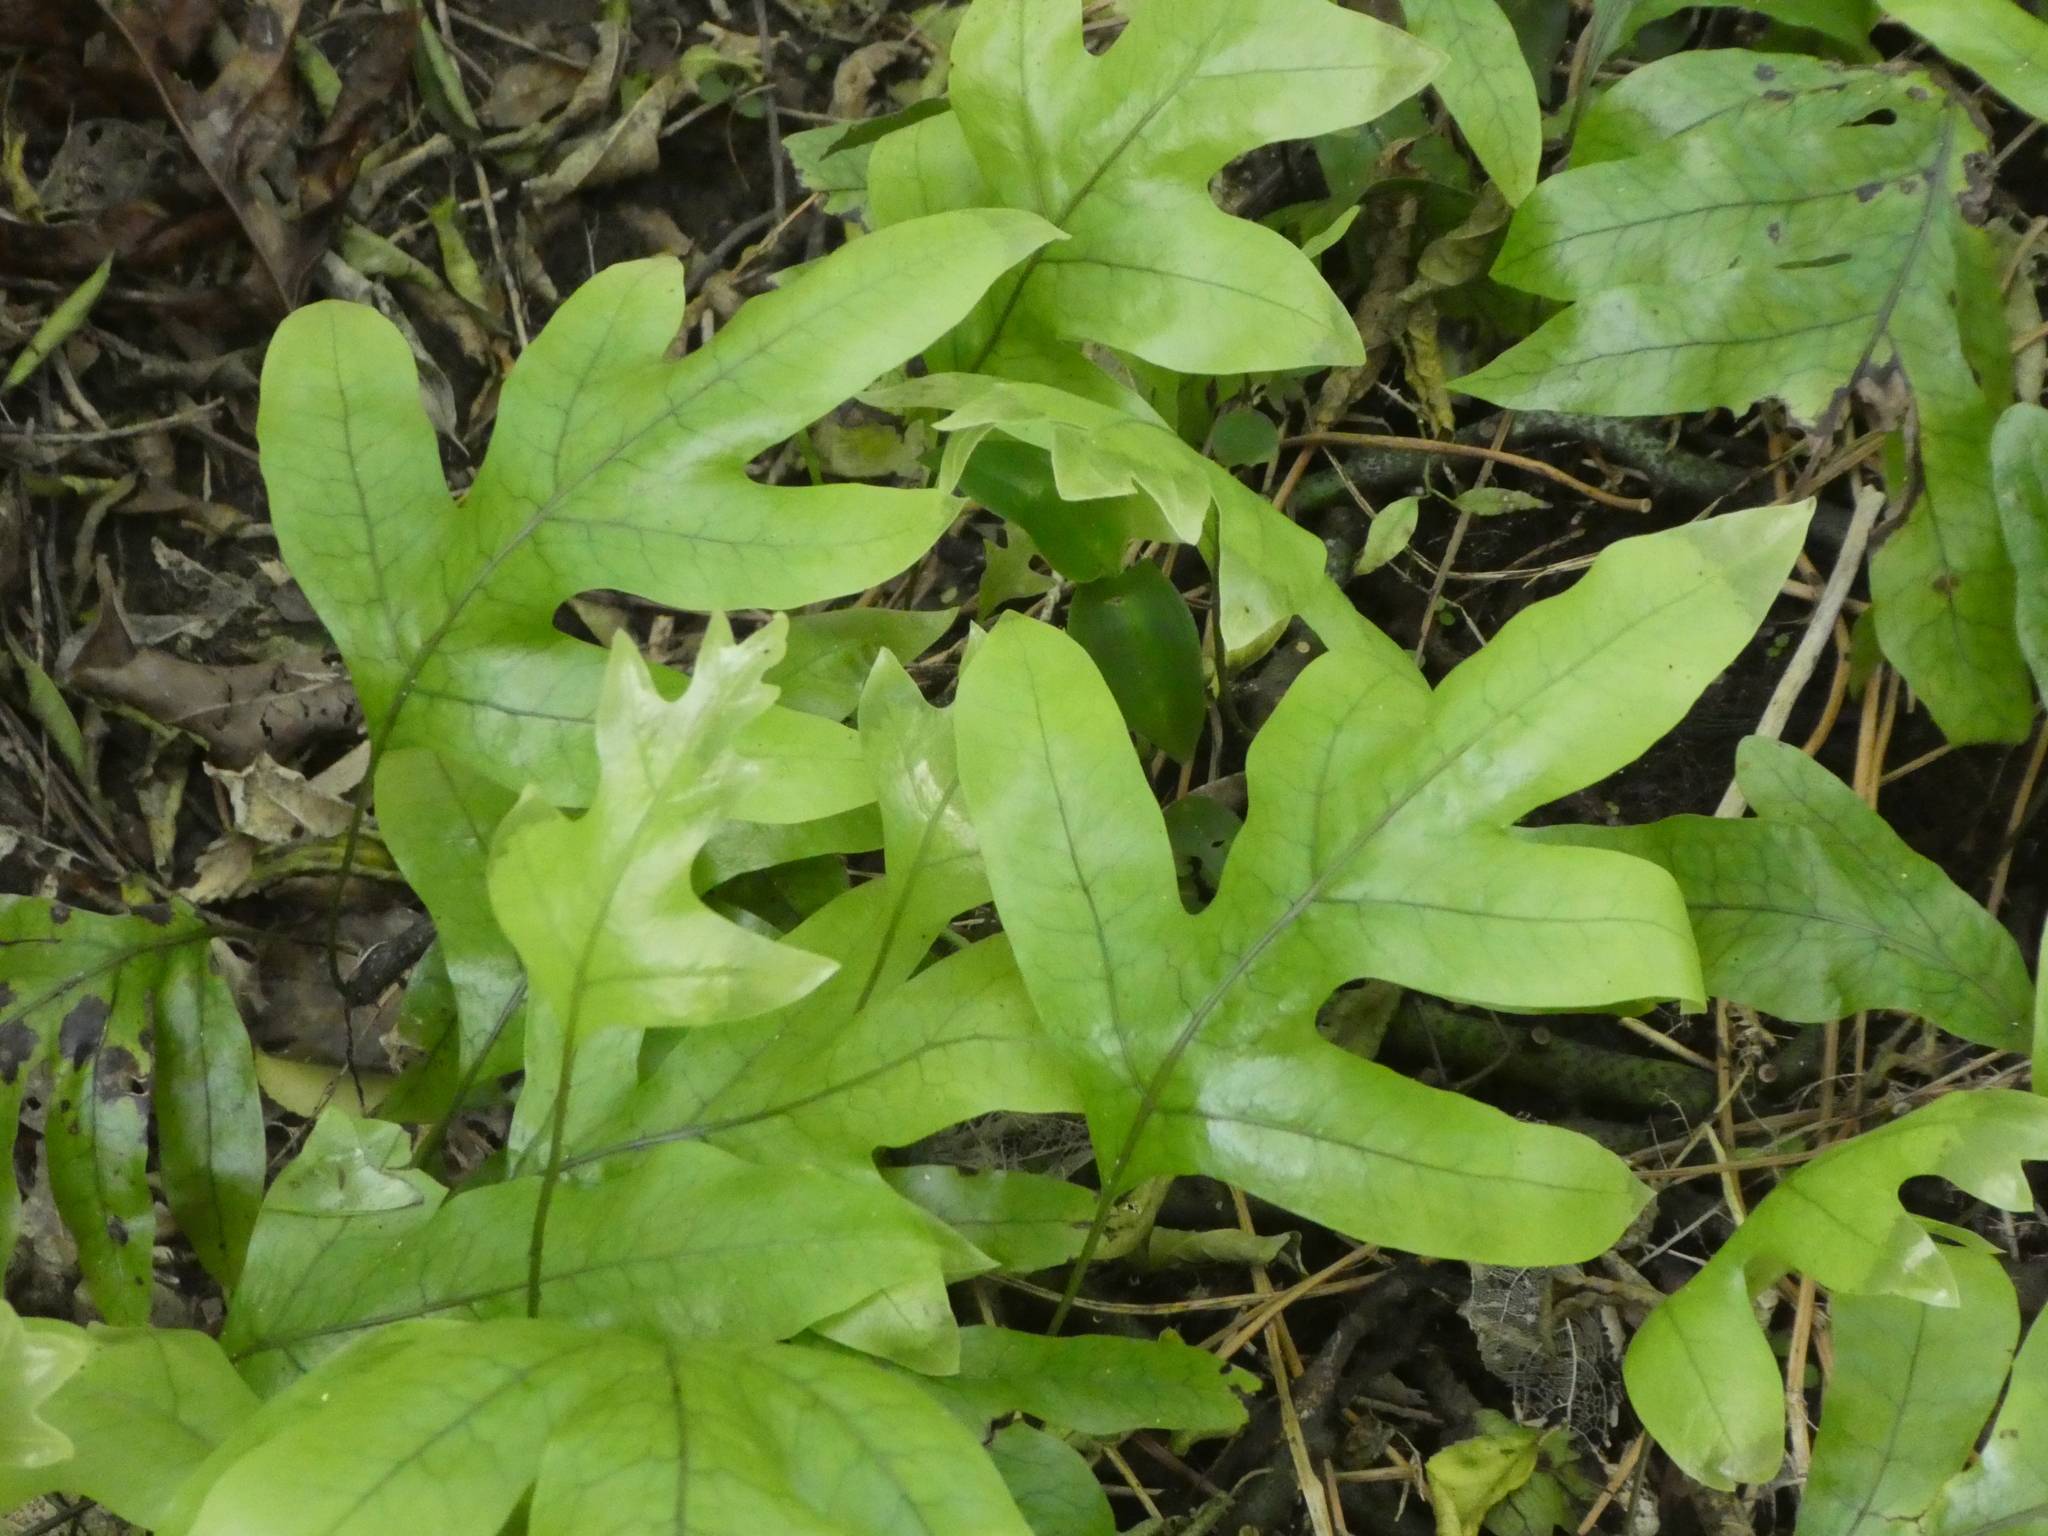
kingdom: Plantae
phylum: Tracheophyta
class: Polypodiopsida
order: Polypodiales
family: Polypodiaceae
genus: Lecanopteris
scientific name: Lecanopteris pustulata
